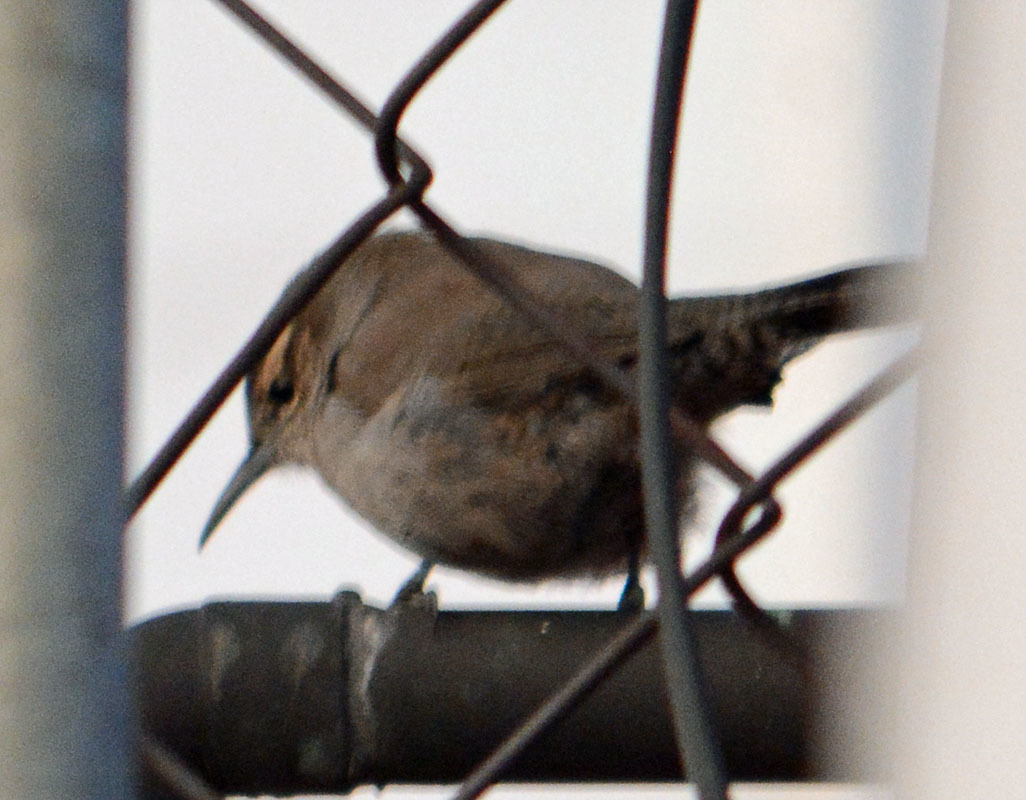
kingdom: Animalia
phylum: Chordata
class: Aves
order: Passeriformes
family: Troglodytidae
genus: Thryomanes
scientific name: Thryomanes bewickii
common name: Bewick's wren
